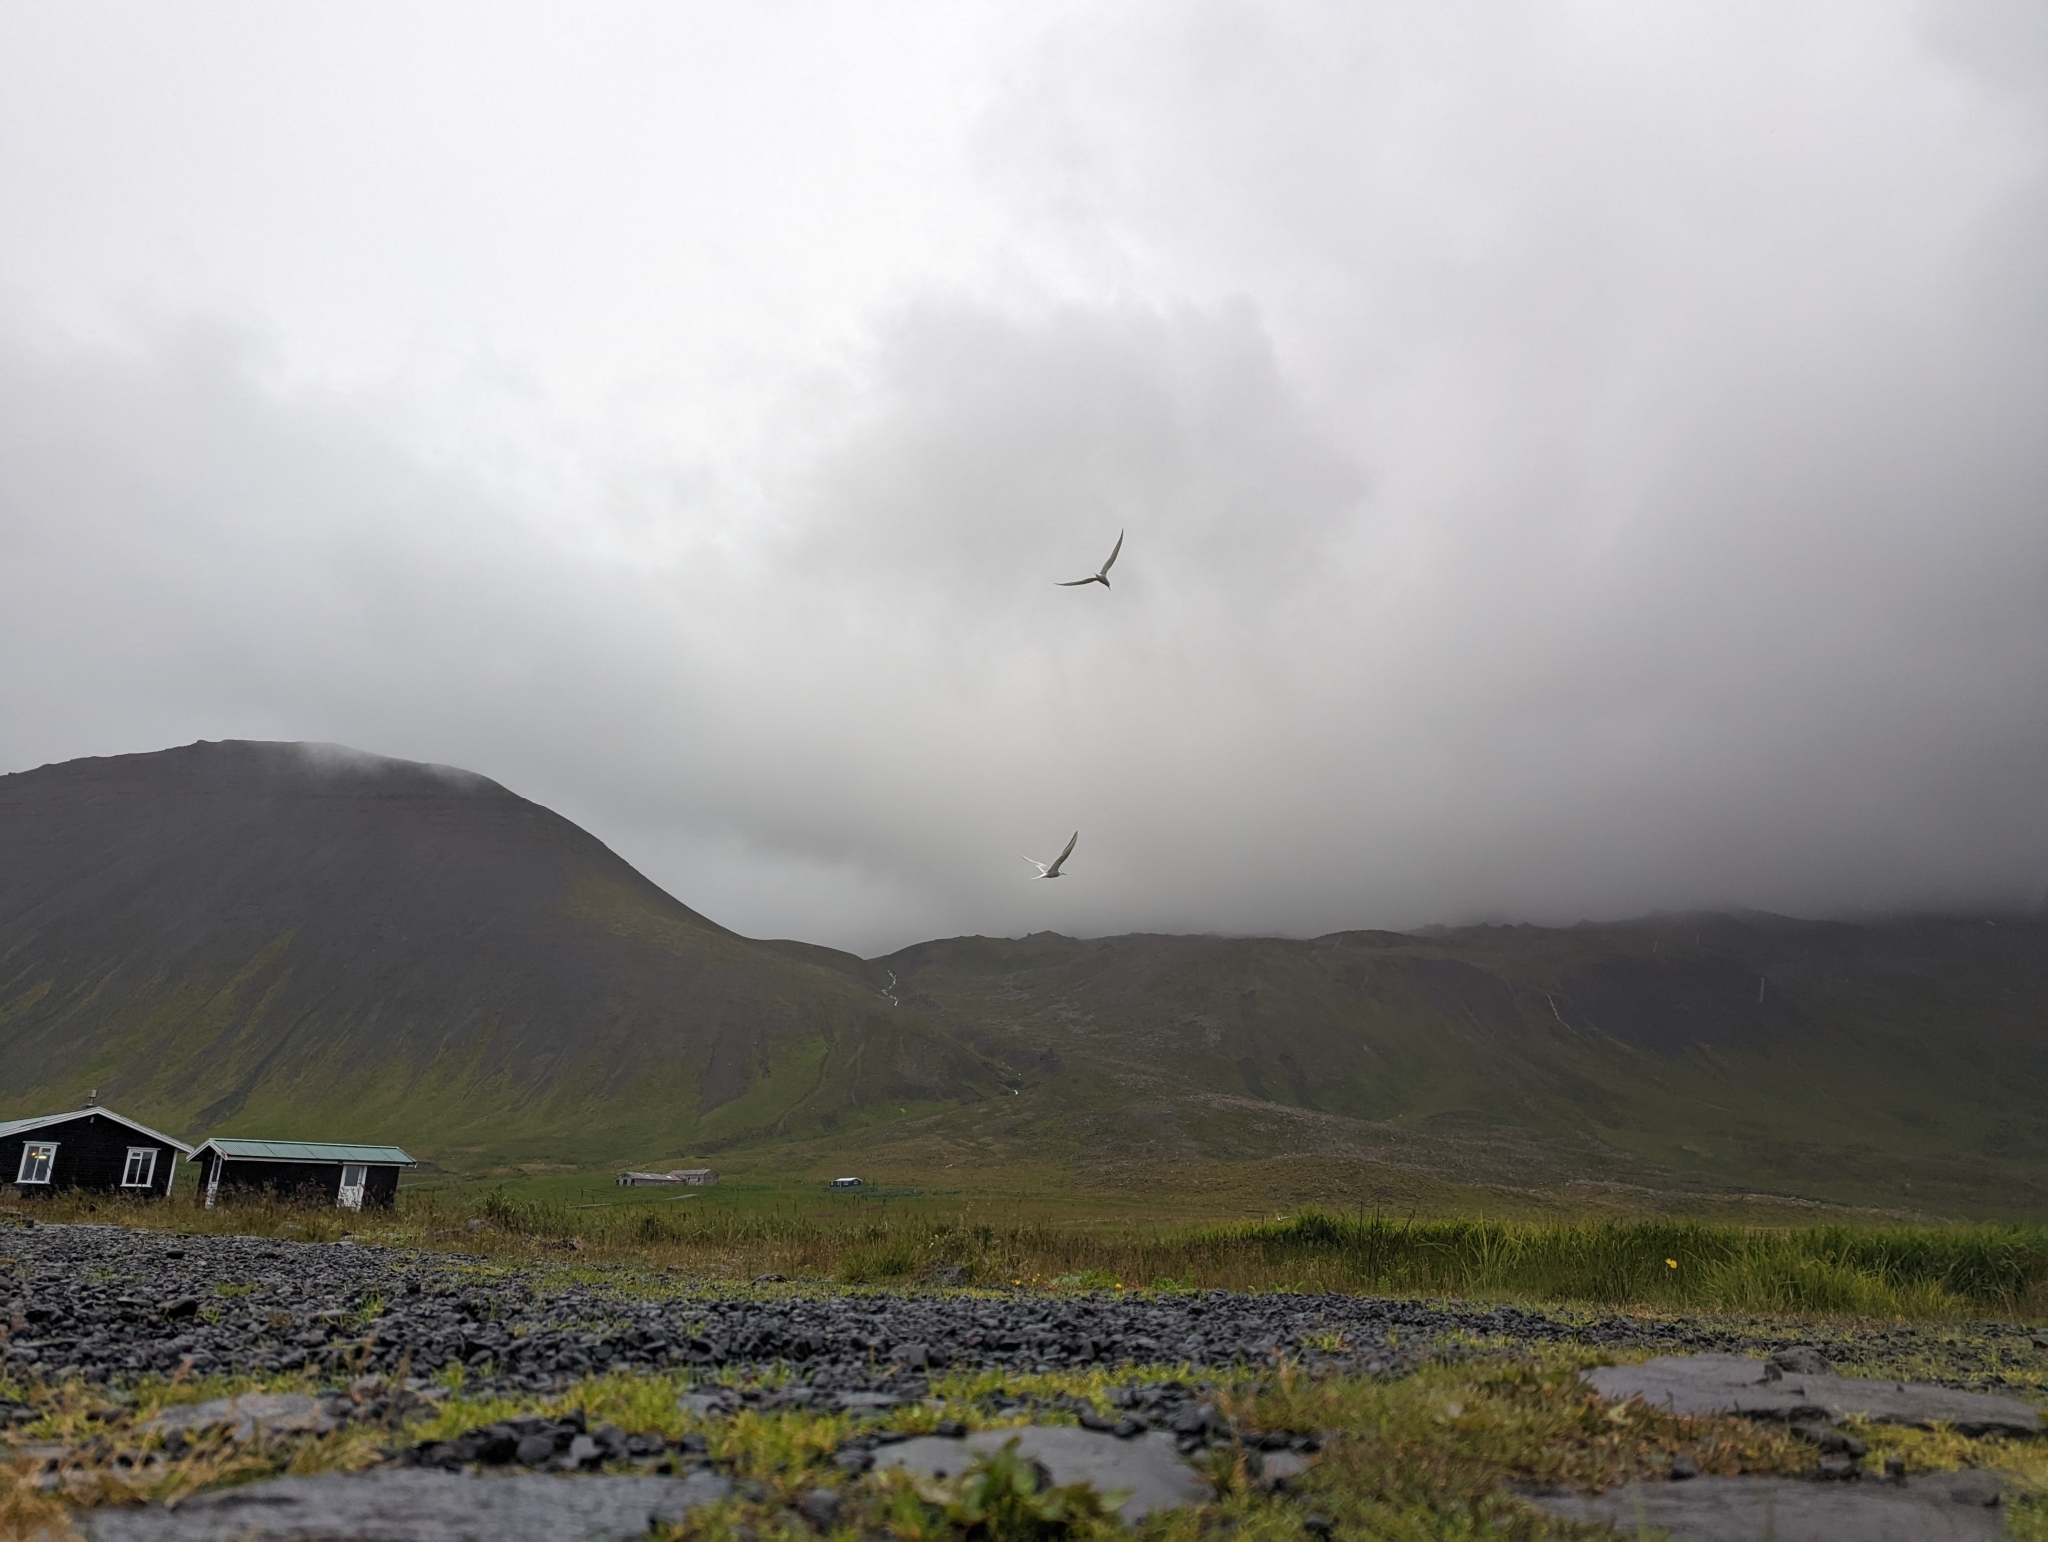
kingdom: Animalia
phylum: Chordata
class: Aves
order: Charadriiformes
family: Laridae
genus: Sterna
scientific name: Sterna paradisaea
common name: Arctic tern
